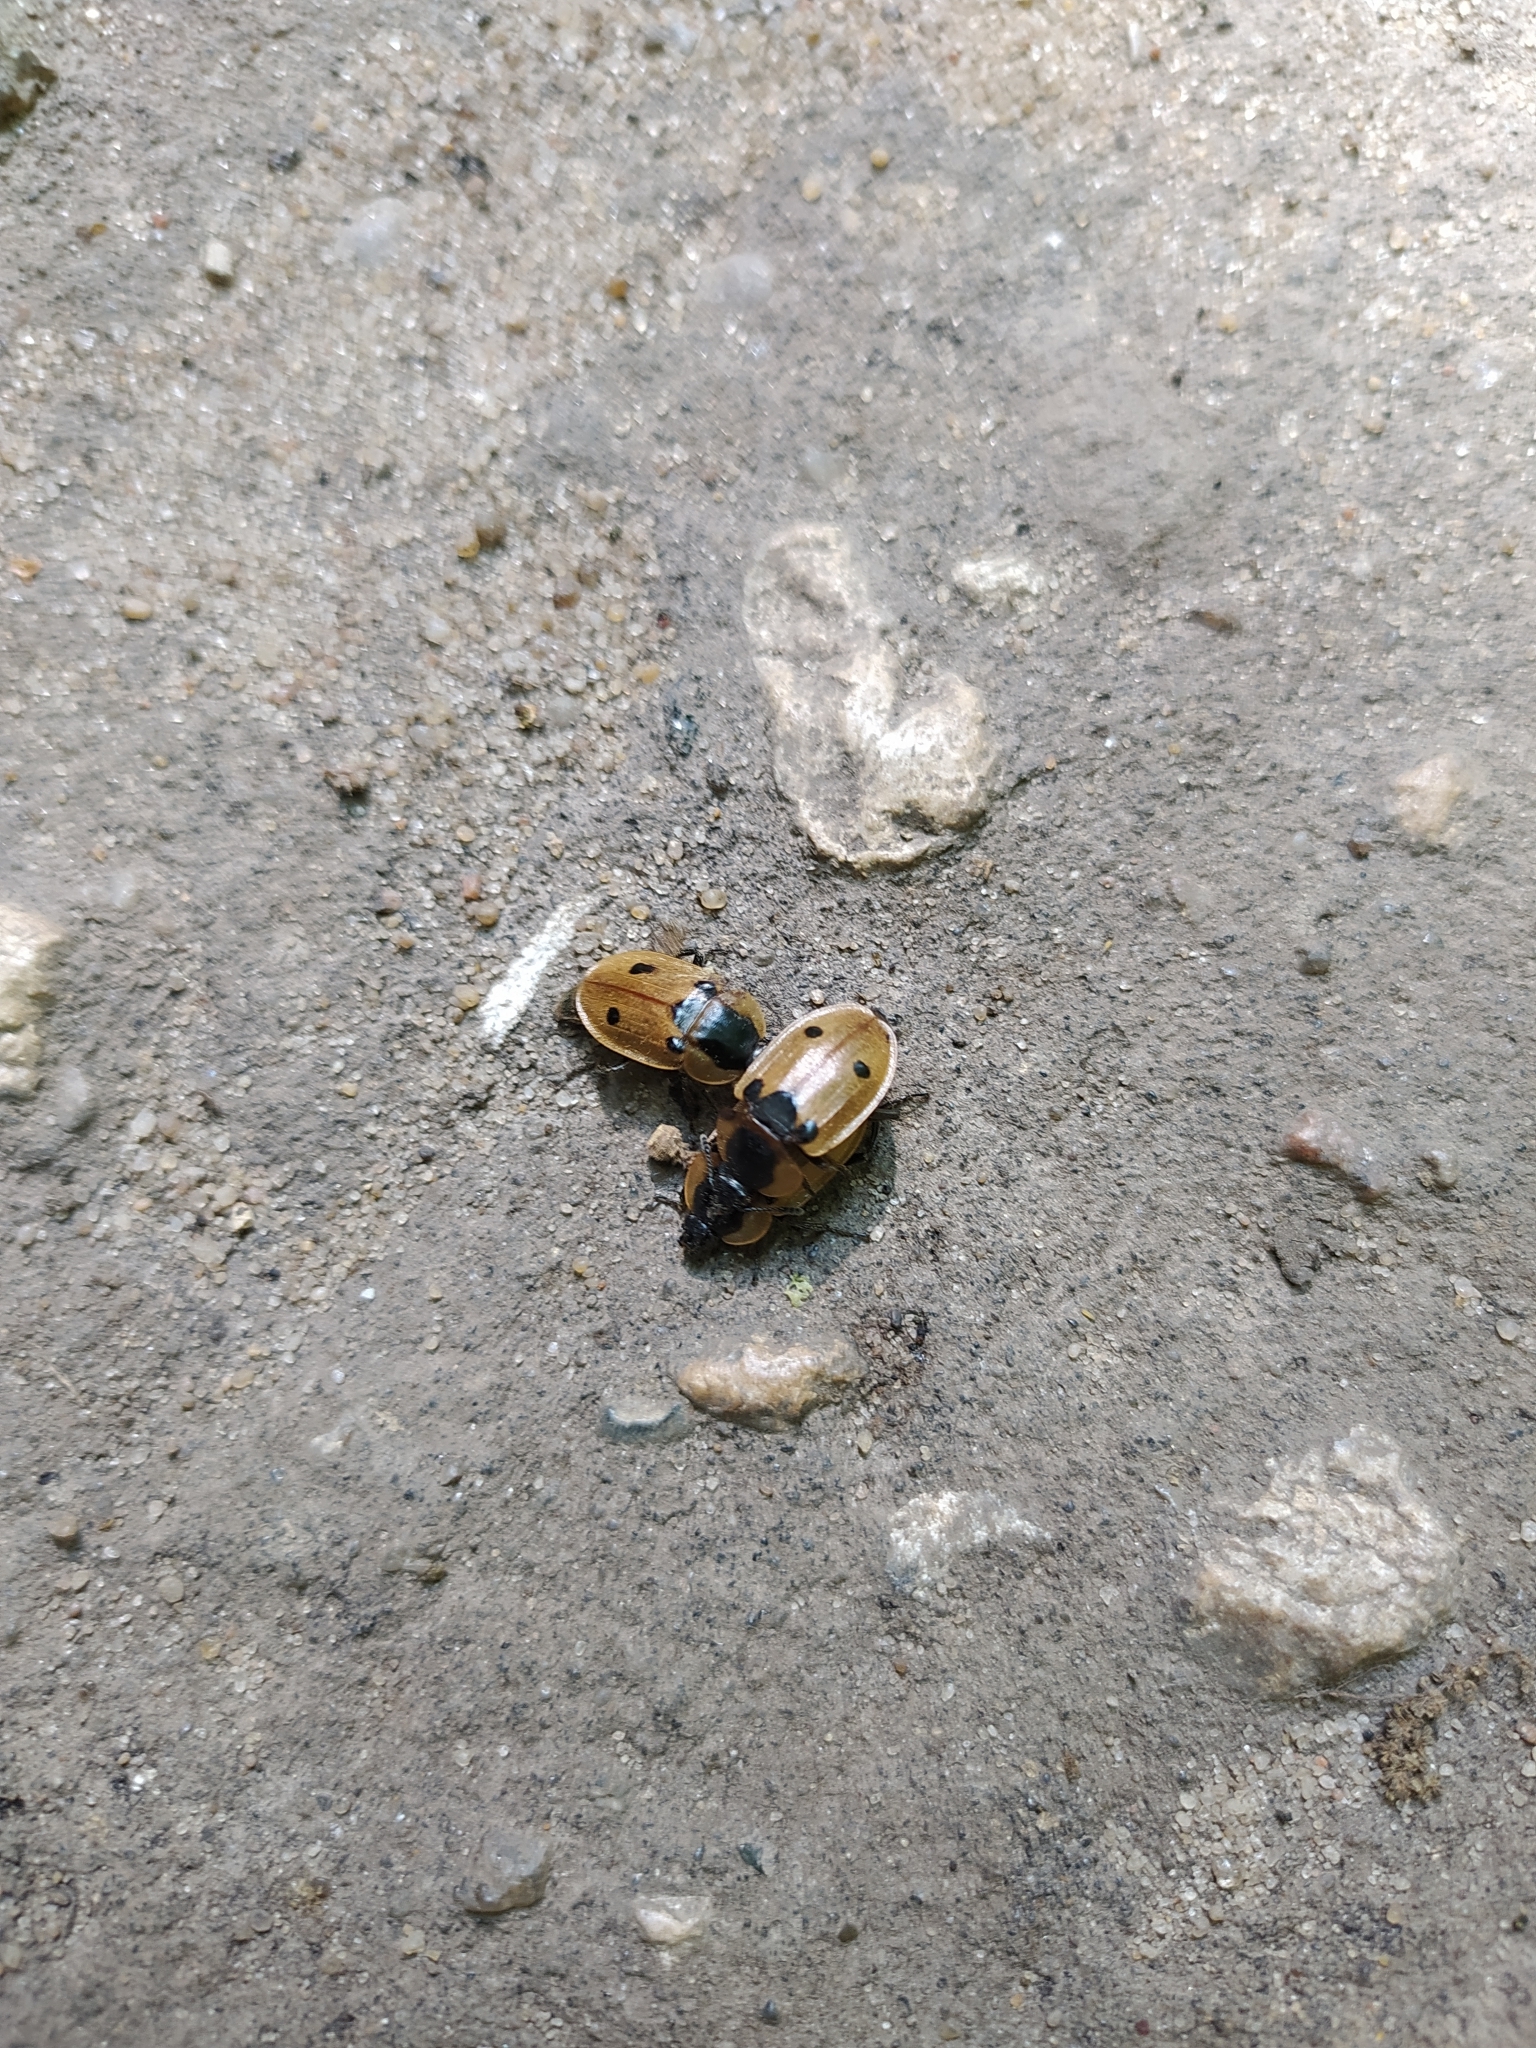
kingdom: Animalia
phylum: Arthropoda
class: Insecta
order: Coleoptera
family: Staphylinidae
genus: Dendroxena
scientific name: Dendroxena quadrimaculata
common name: Carrion beetle
